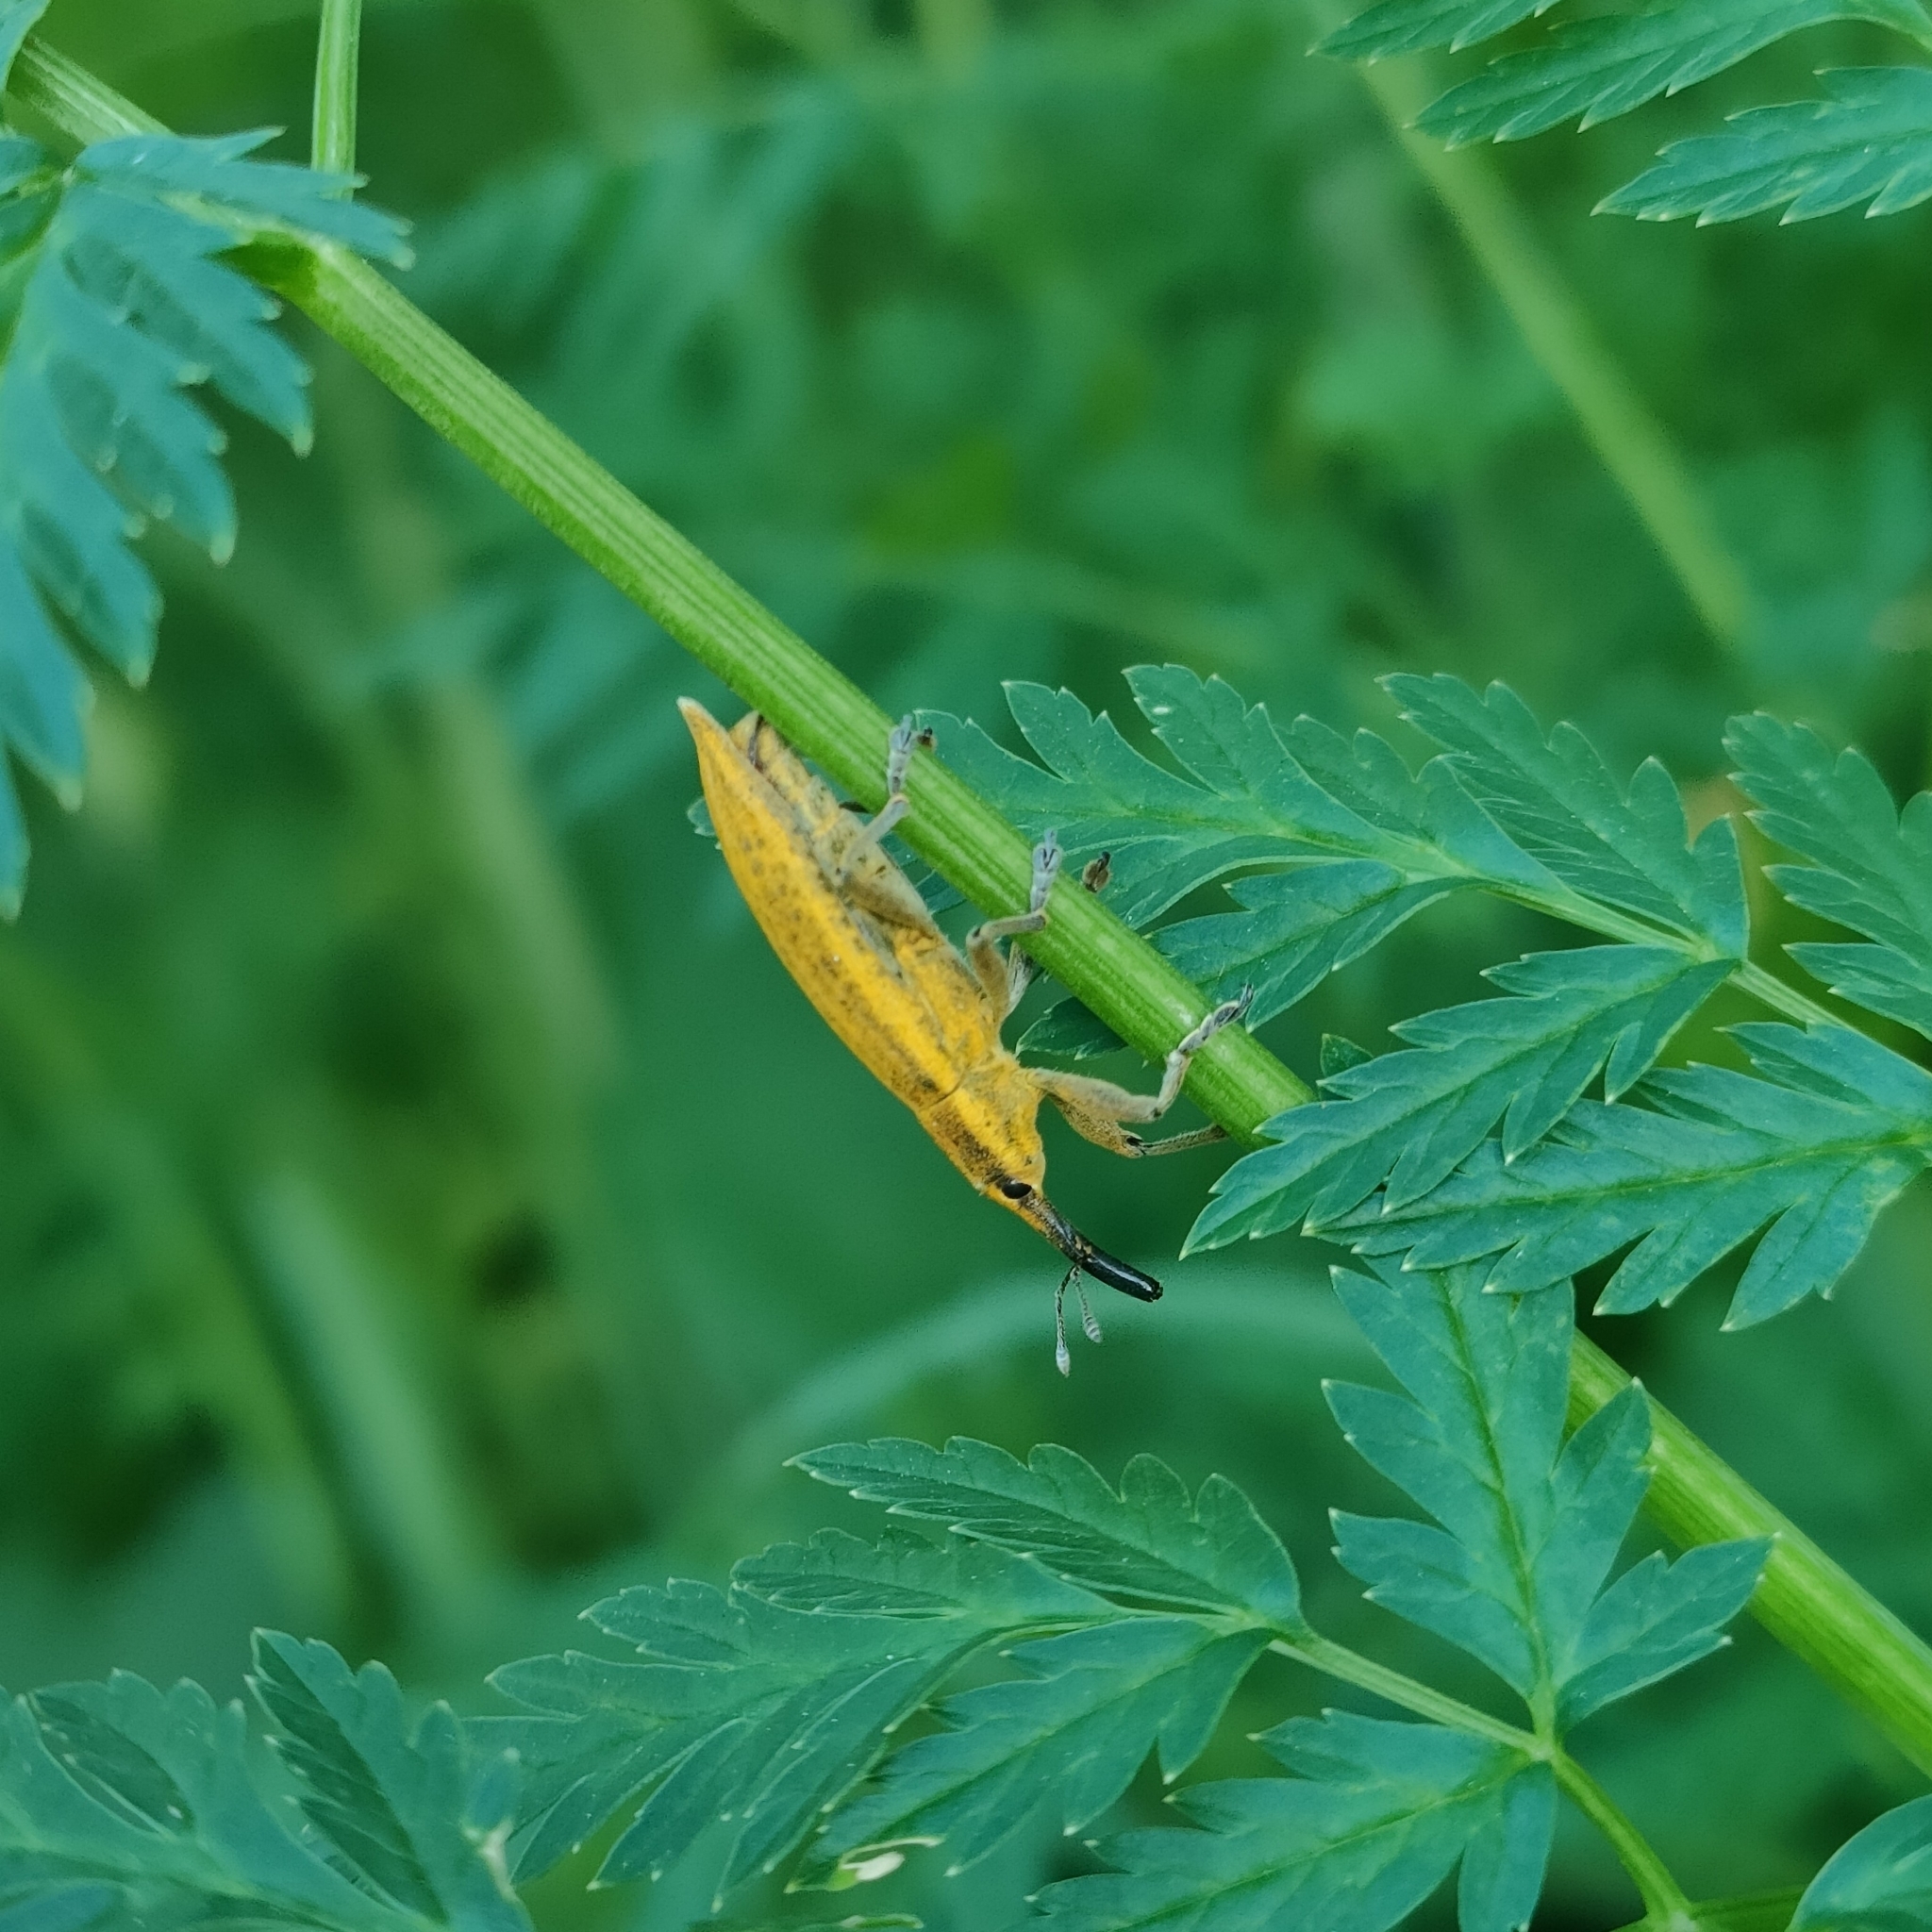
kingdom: Animalia
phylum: Arthropoda
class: Insecta
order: Coleoptera
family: Curculionidae
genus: Lixus
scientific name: Lixus iridis
